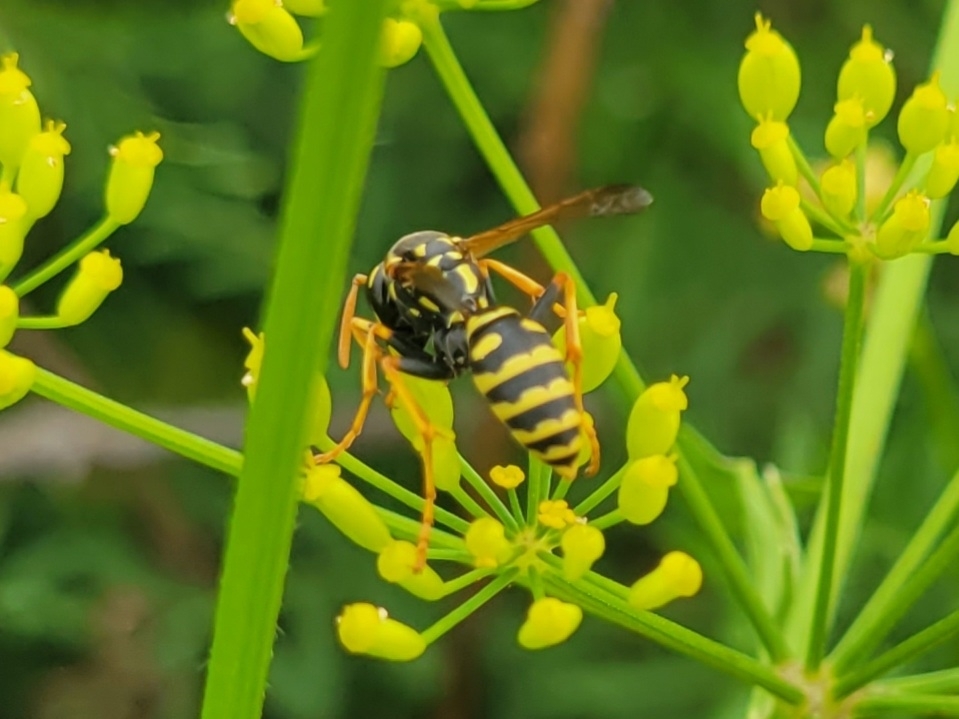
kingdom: Animalia
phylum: Arthropoda
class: Insecta
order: Hymenoptera
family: Eumenidae
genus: Polistes
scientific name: Polistes dominula
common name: Paper wasp
